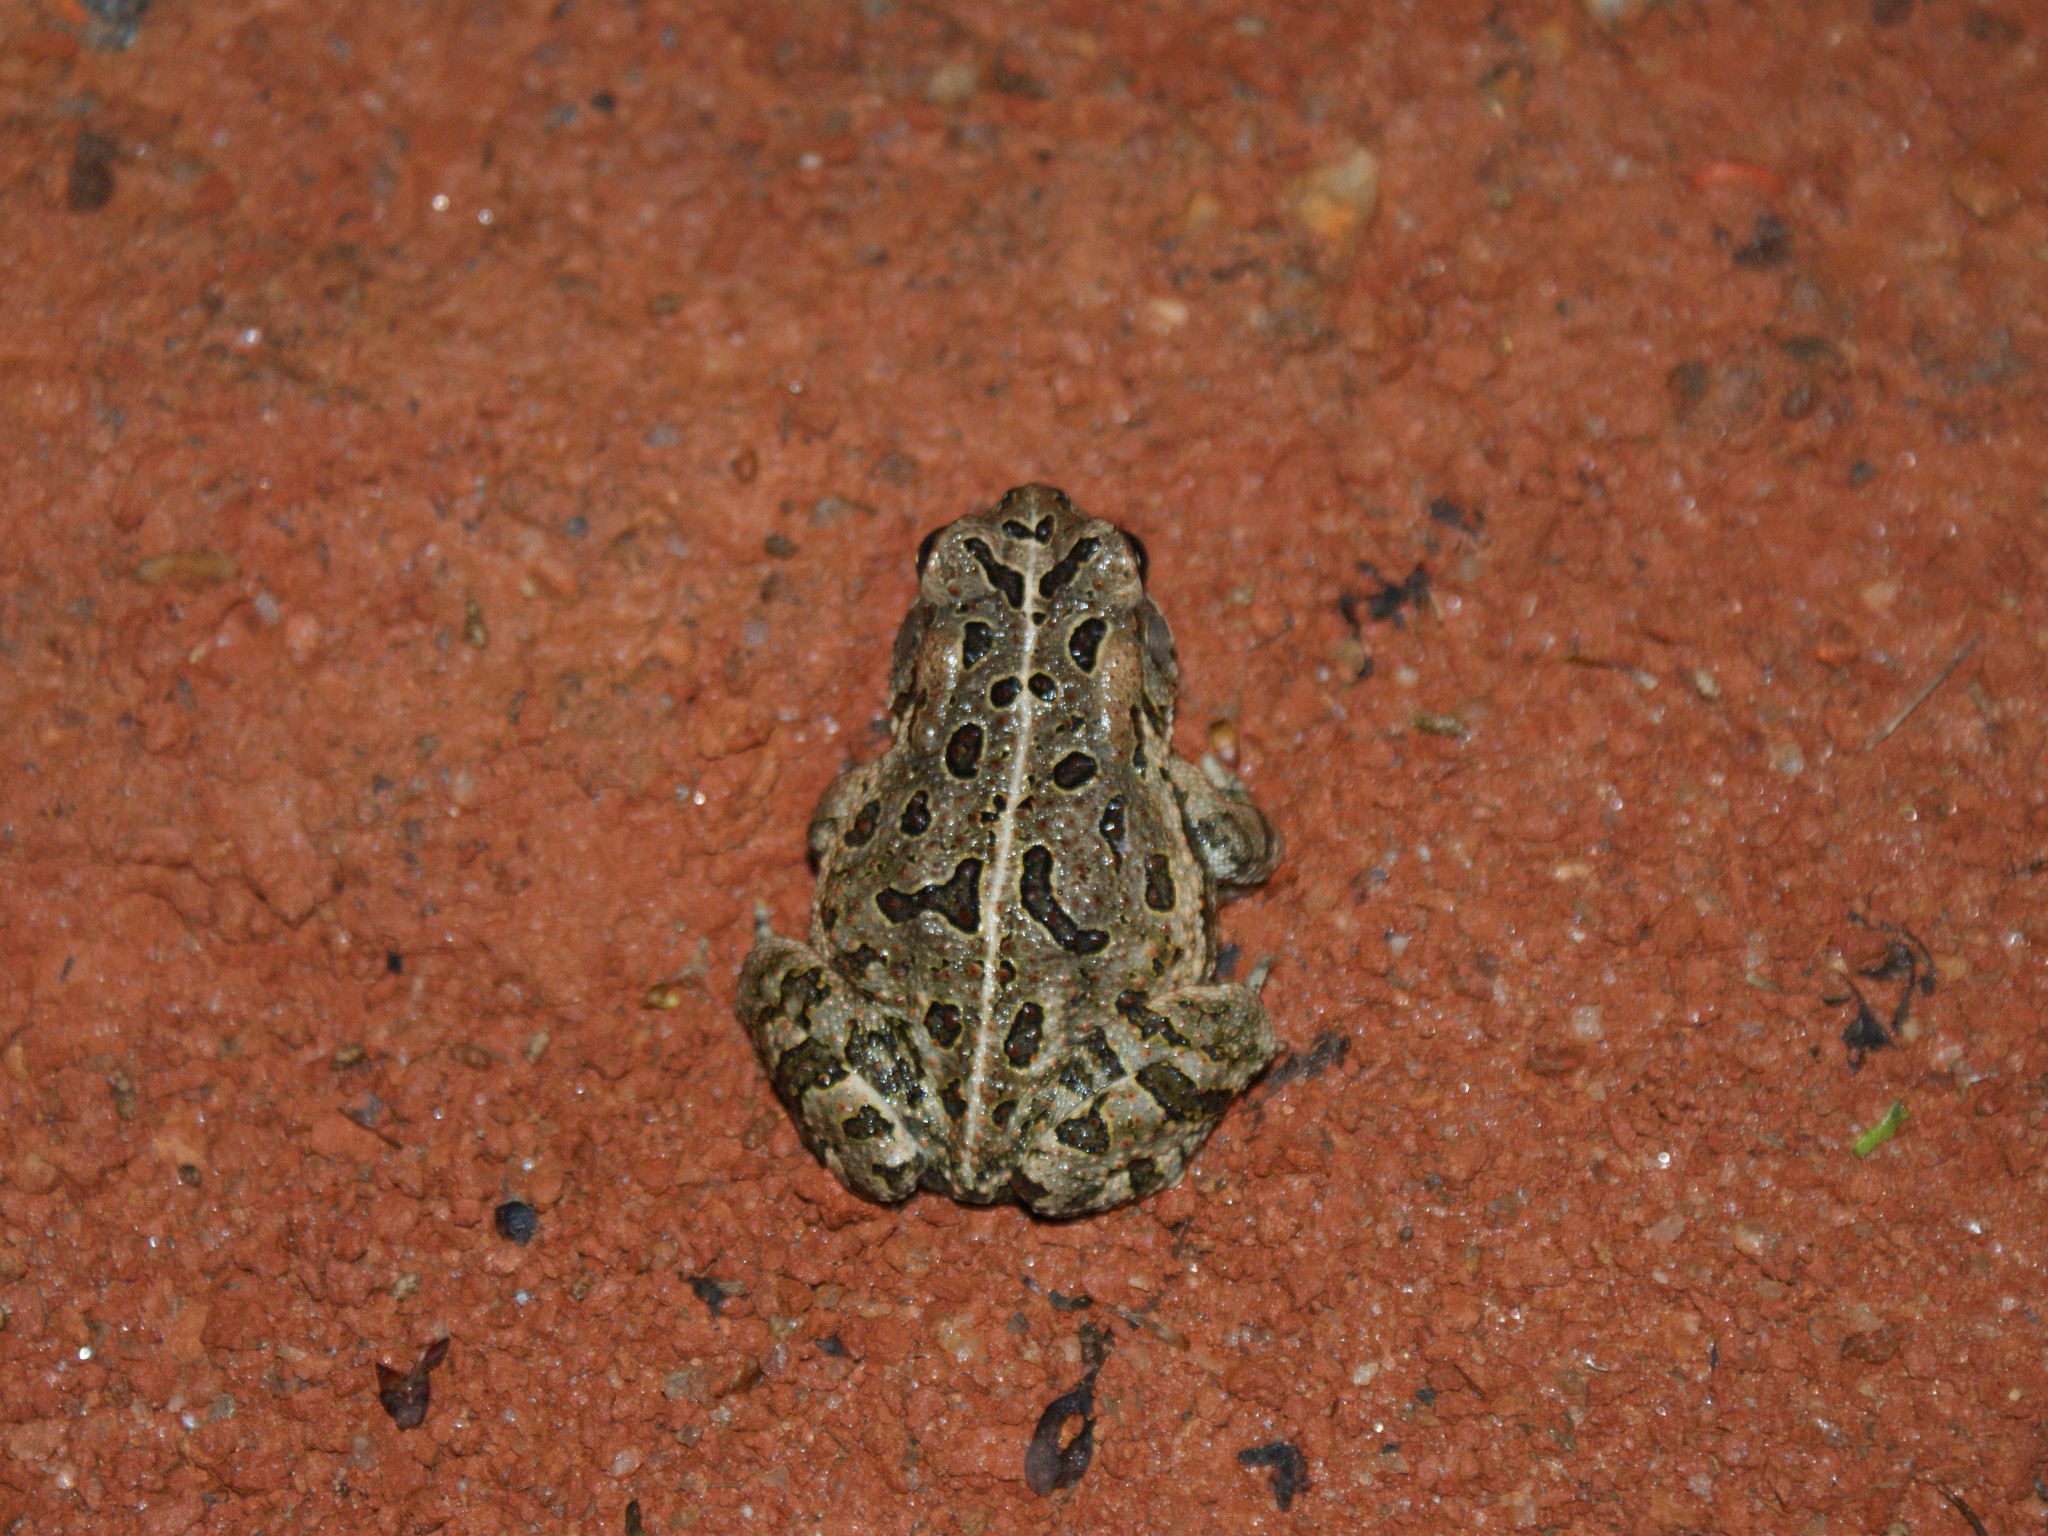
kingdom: Animalia
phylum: Chordata
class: Amphibia
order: Anura
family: Bufonidae
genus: Anaxyrus
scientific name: Anaxyrus fowleri
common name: Fowler's toad
